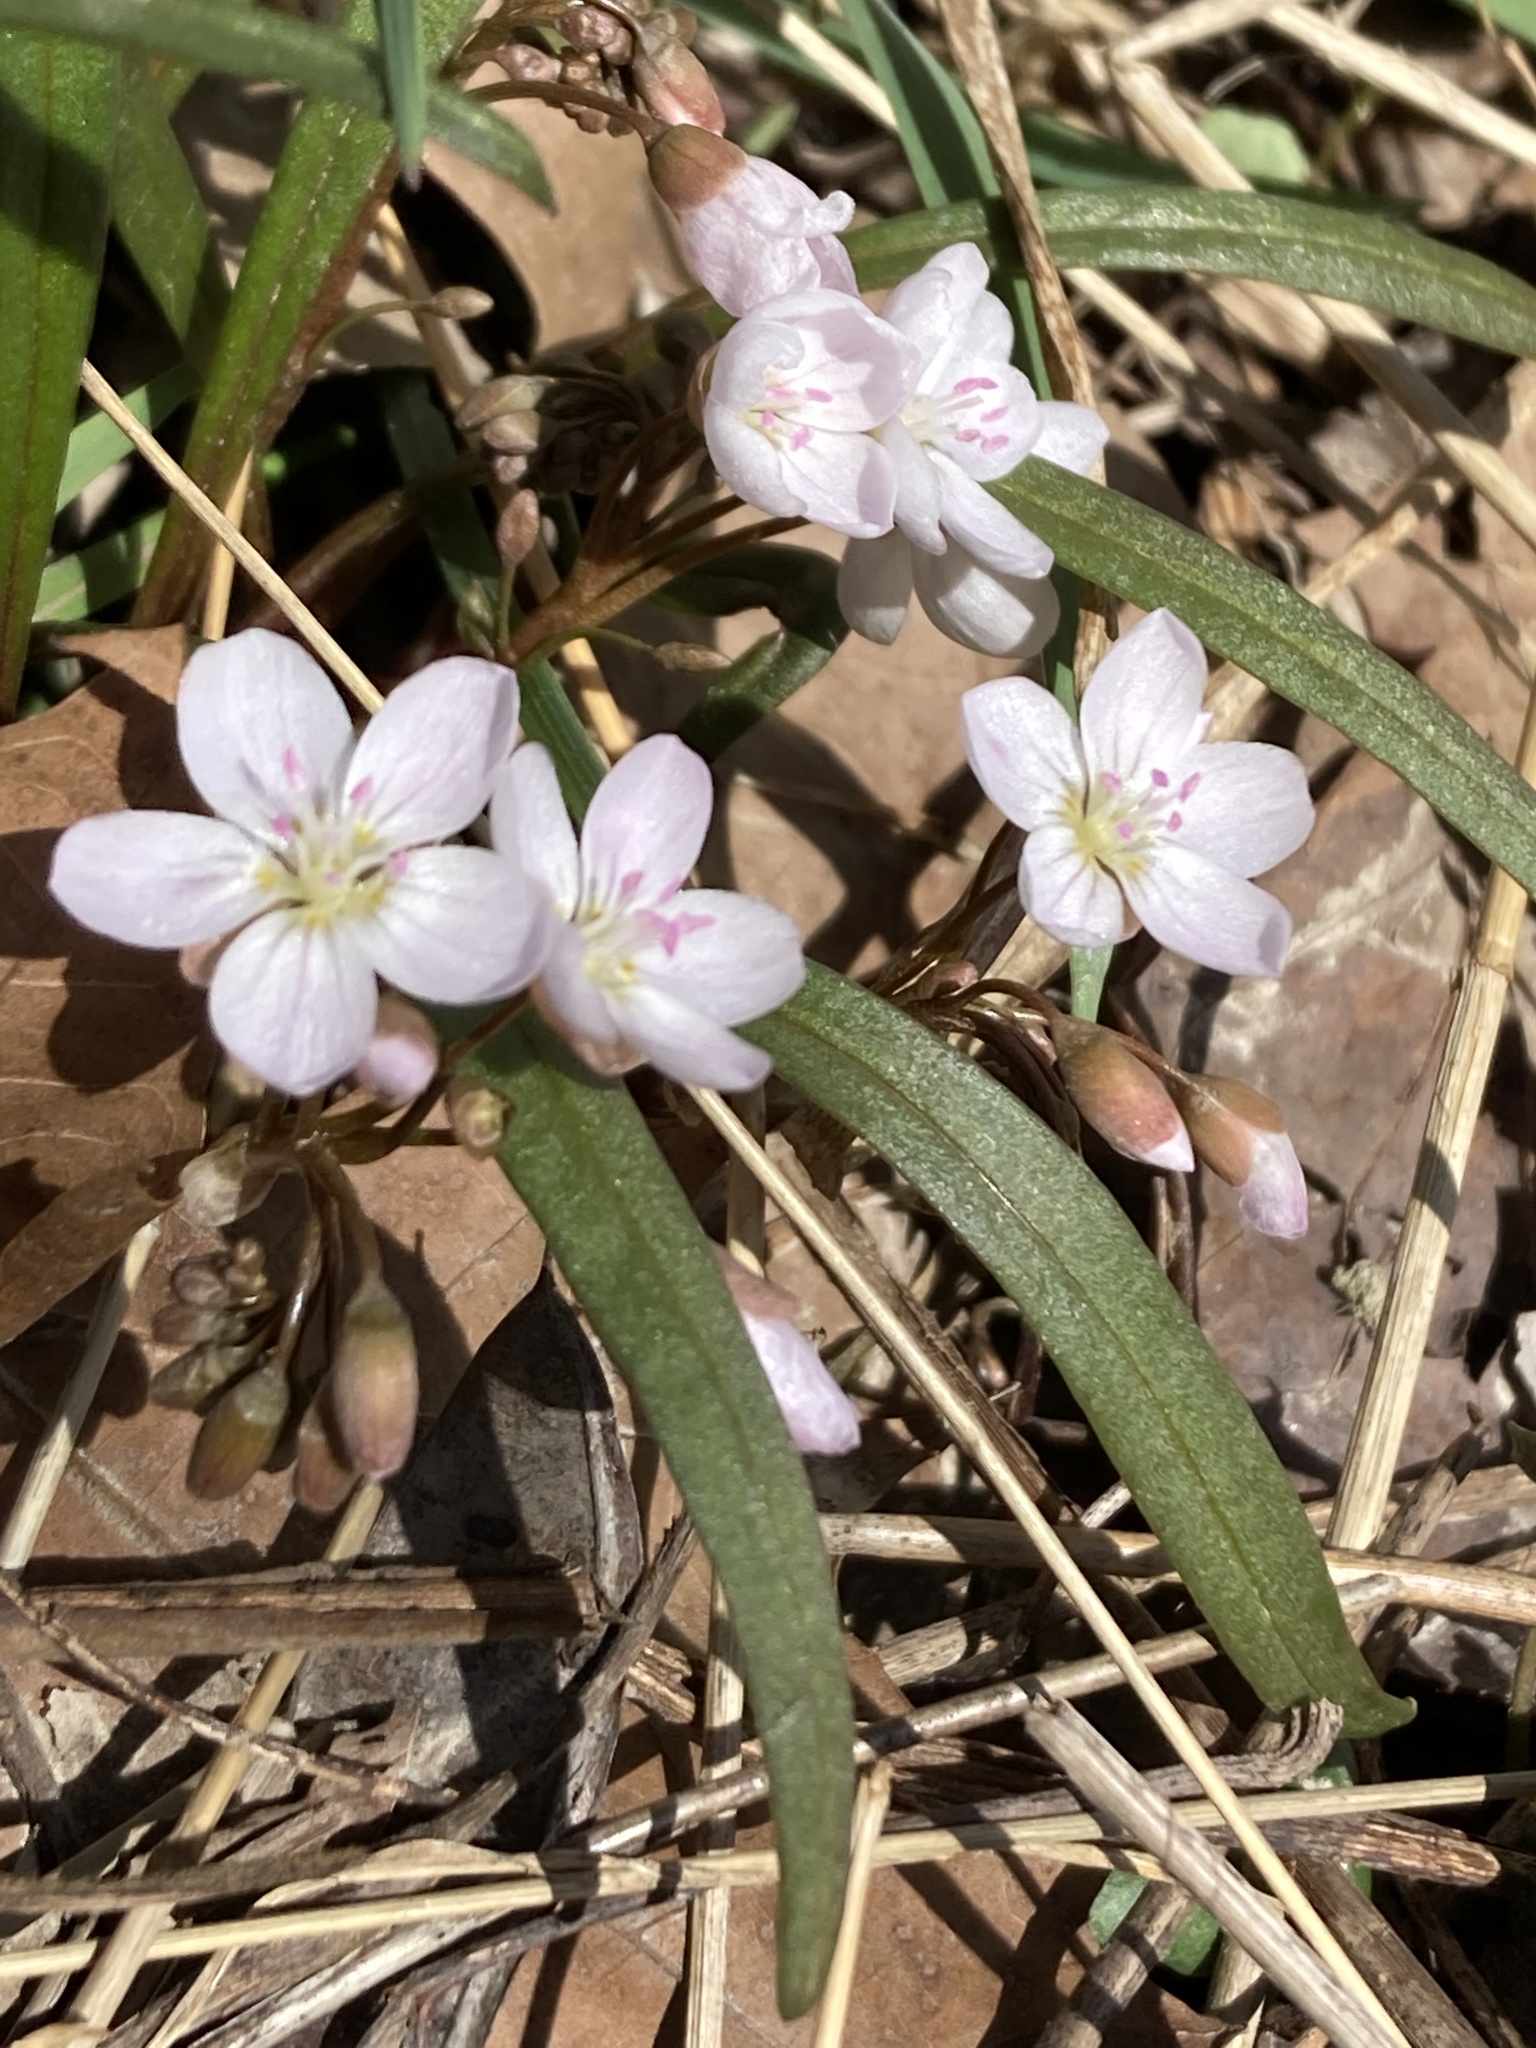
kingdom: Plantae
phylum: Tracheophyta
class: Magnoliopsida
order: Caryophyllales
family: Montiaceae
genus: Claytonia
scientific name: Claytonia virginica
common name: Virginia springbeauty
